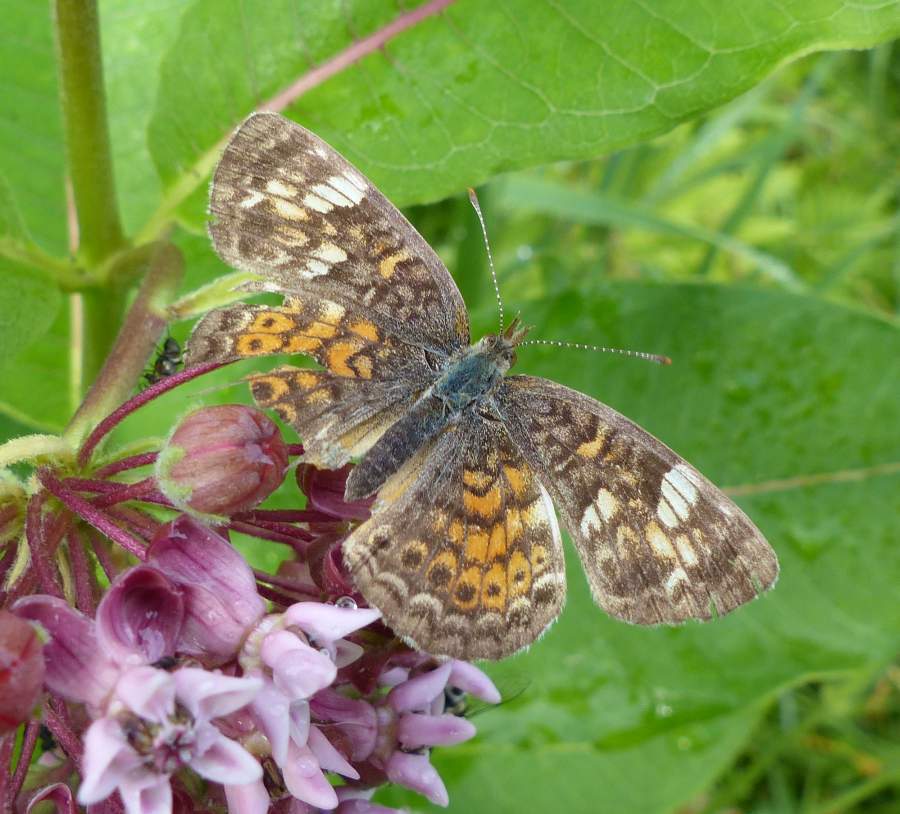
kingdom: Animalia
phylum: Arthropoda
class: Insecta
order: Lepidoptera
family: Nymphalidae
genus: Phyciodes
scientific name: Phyciodes tharos
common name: Pearl crescent
